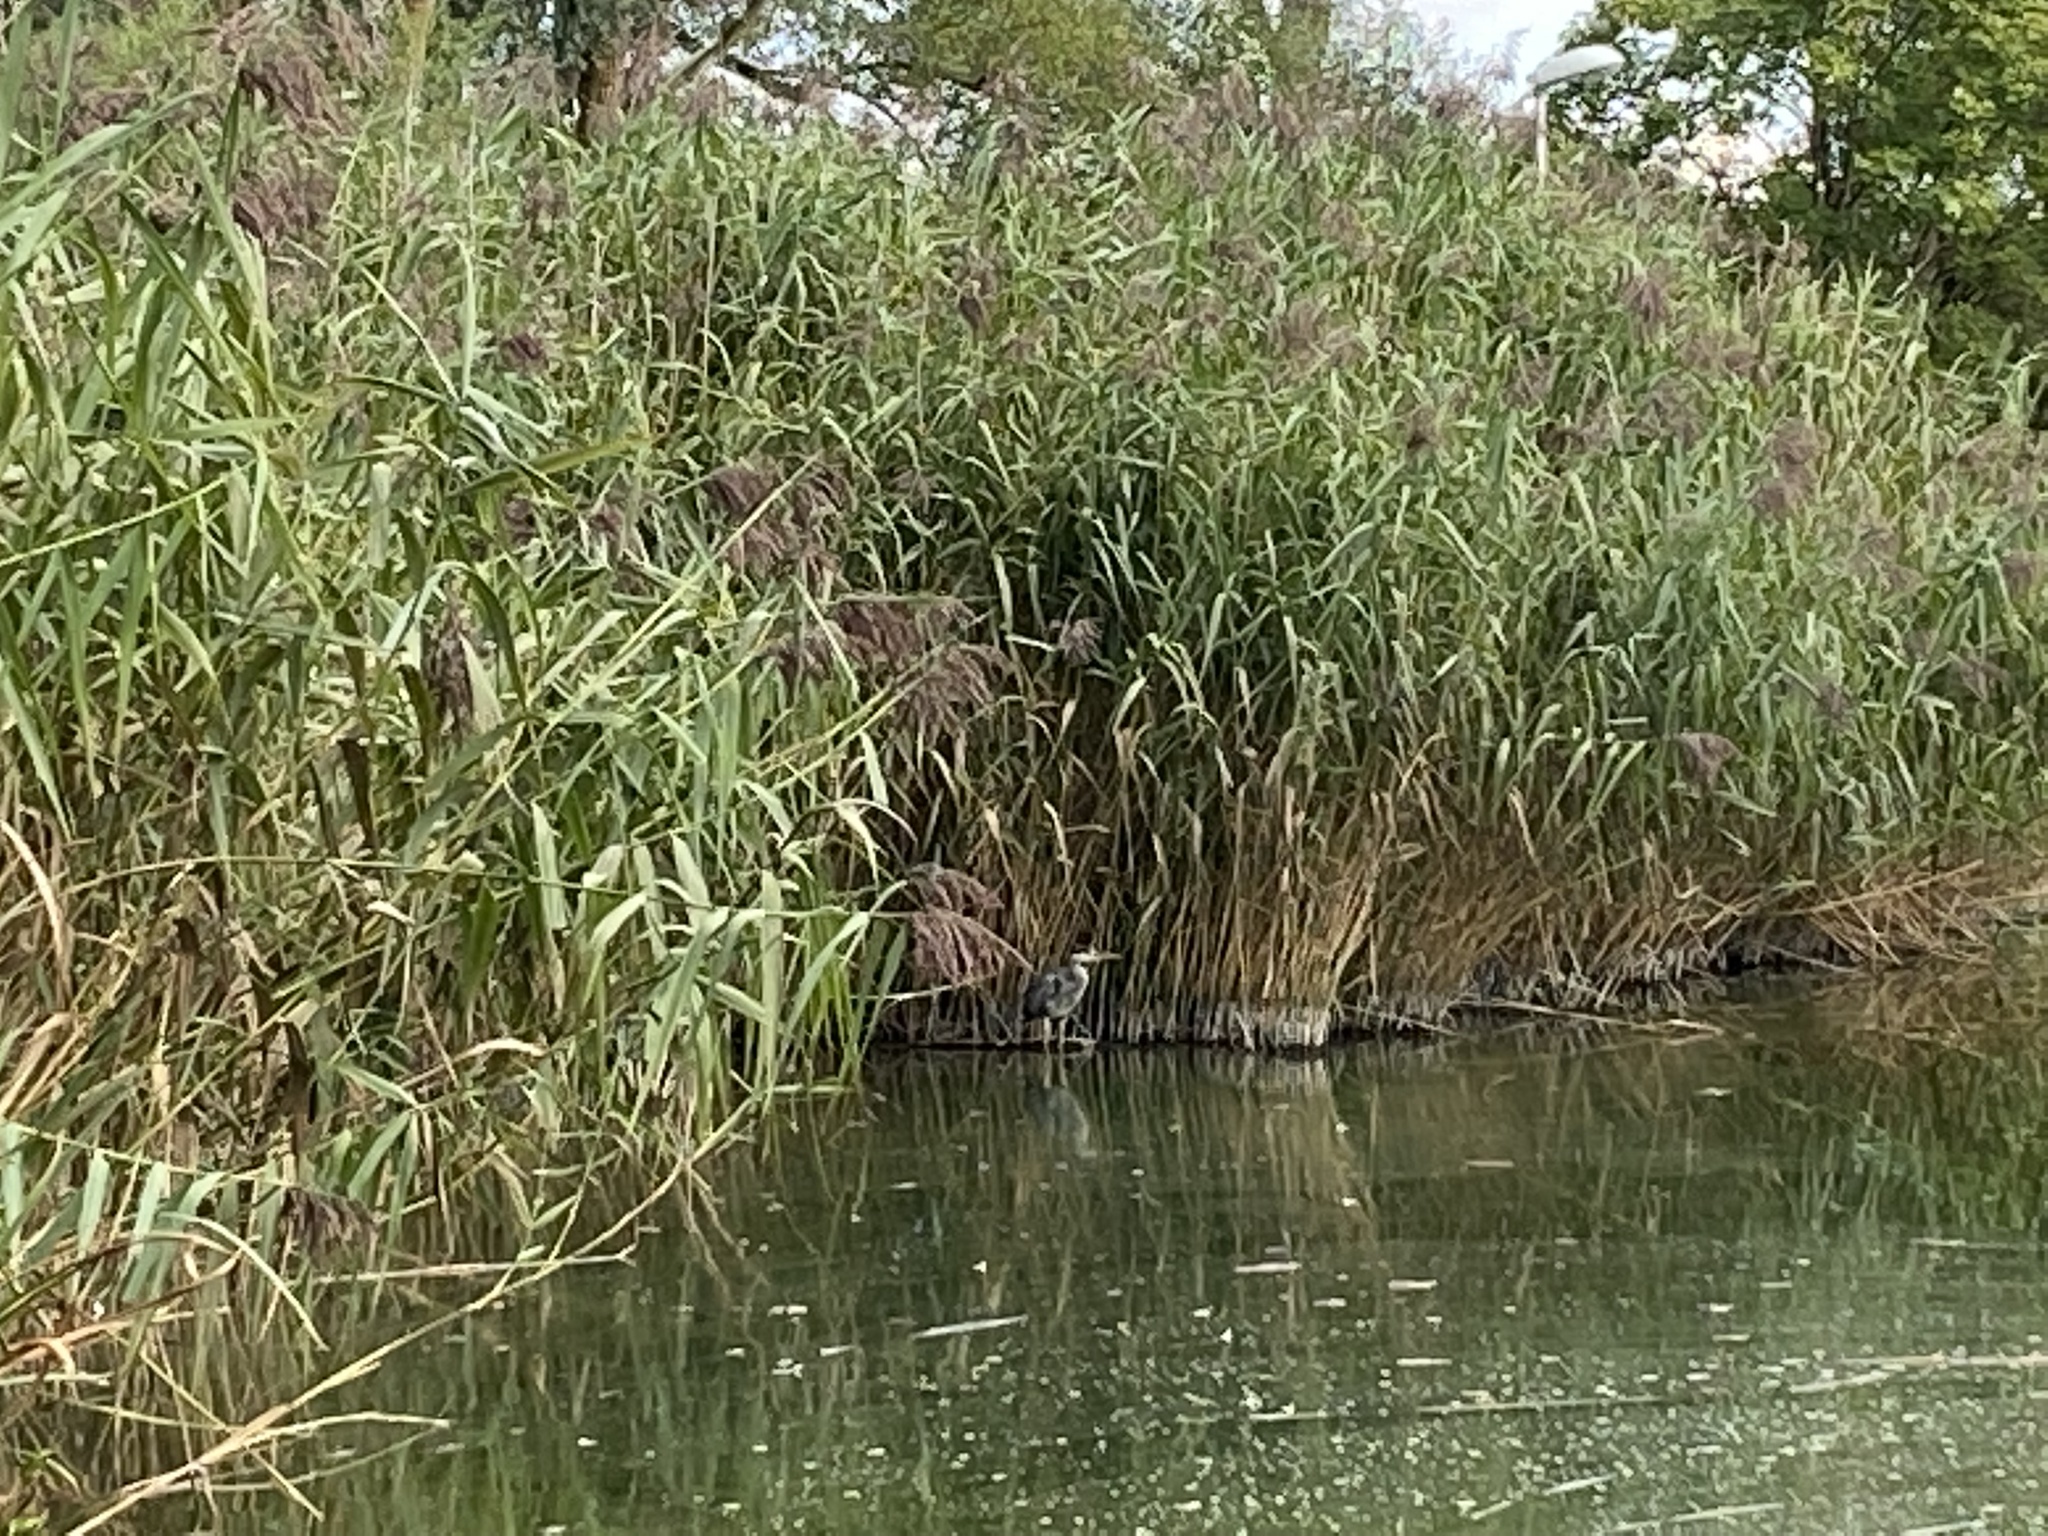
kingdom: Animalia
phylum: Chordata
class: Aves
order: Pelecaniformes
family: Ardeidae
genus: Ardea
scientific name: Ardea cinerea
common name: Grey heron
